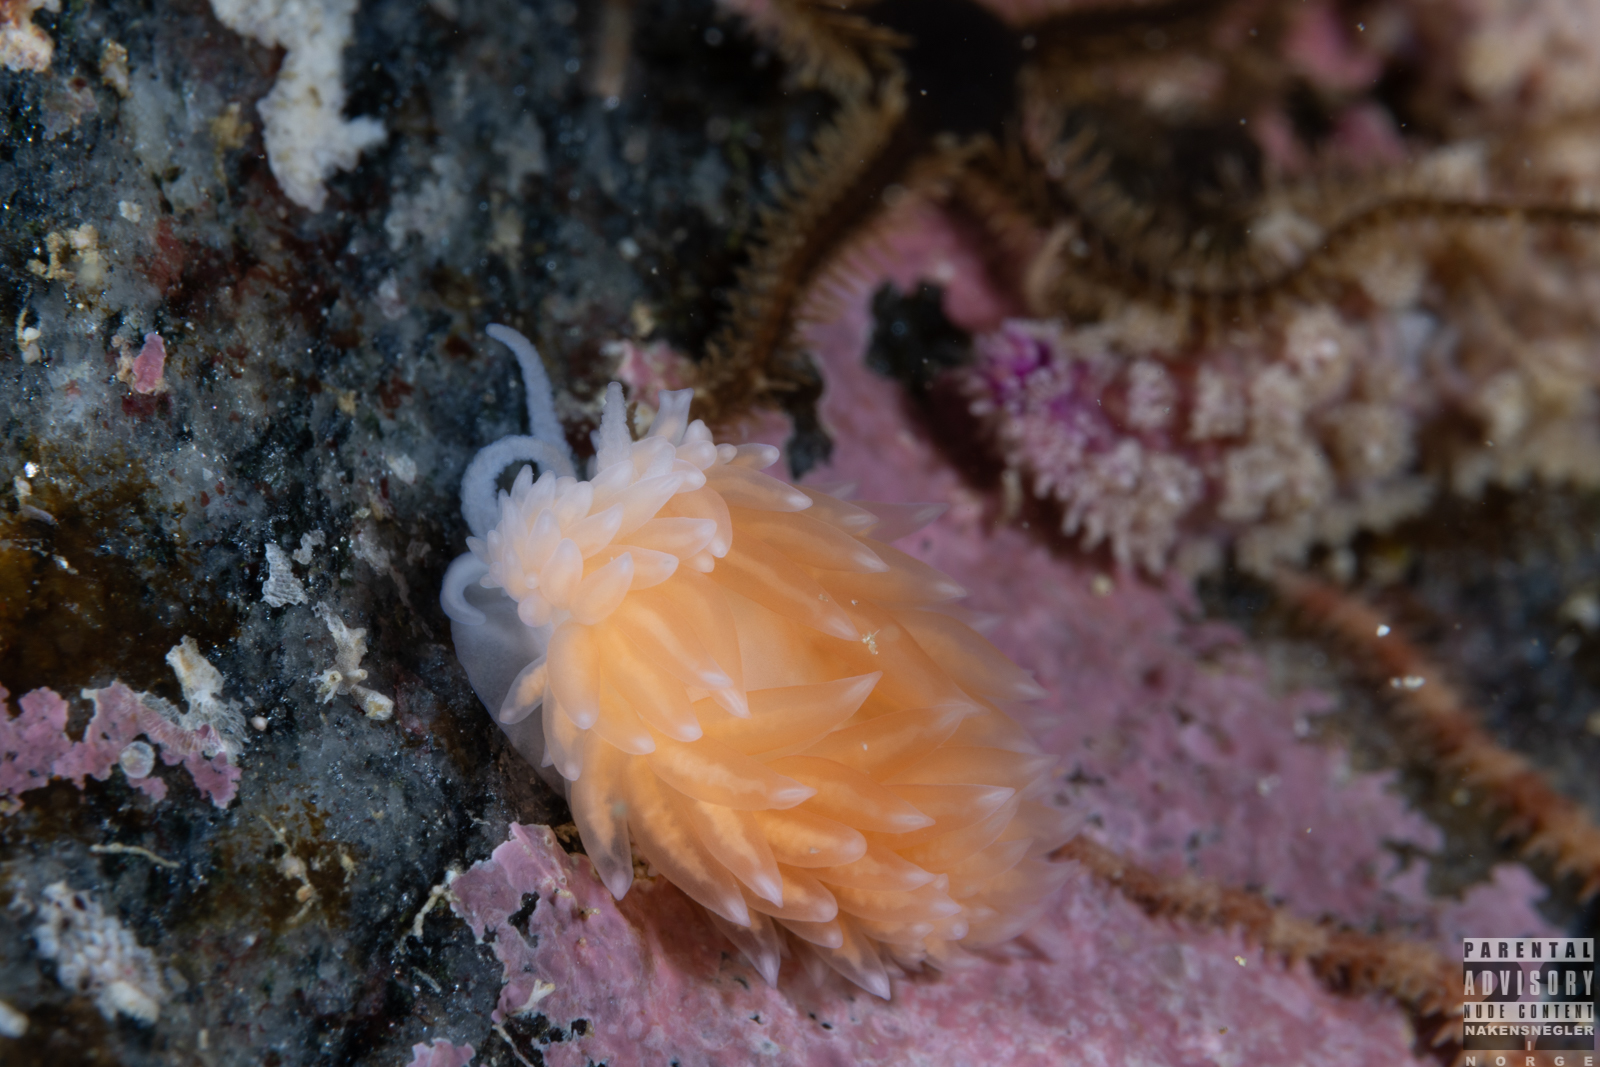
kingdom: Animalia
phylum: Mollusca
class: Gastropoda
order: Nudibranchia
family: Aeolidiidae
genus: Berghia
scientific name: Berghia norvegica
